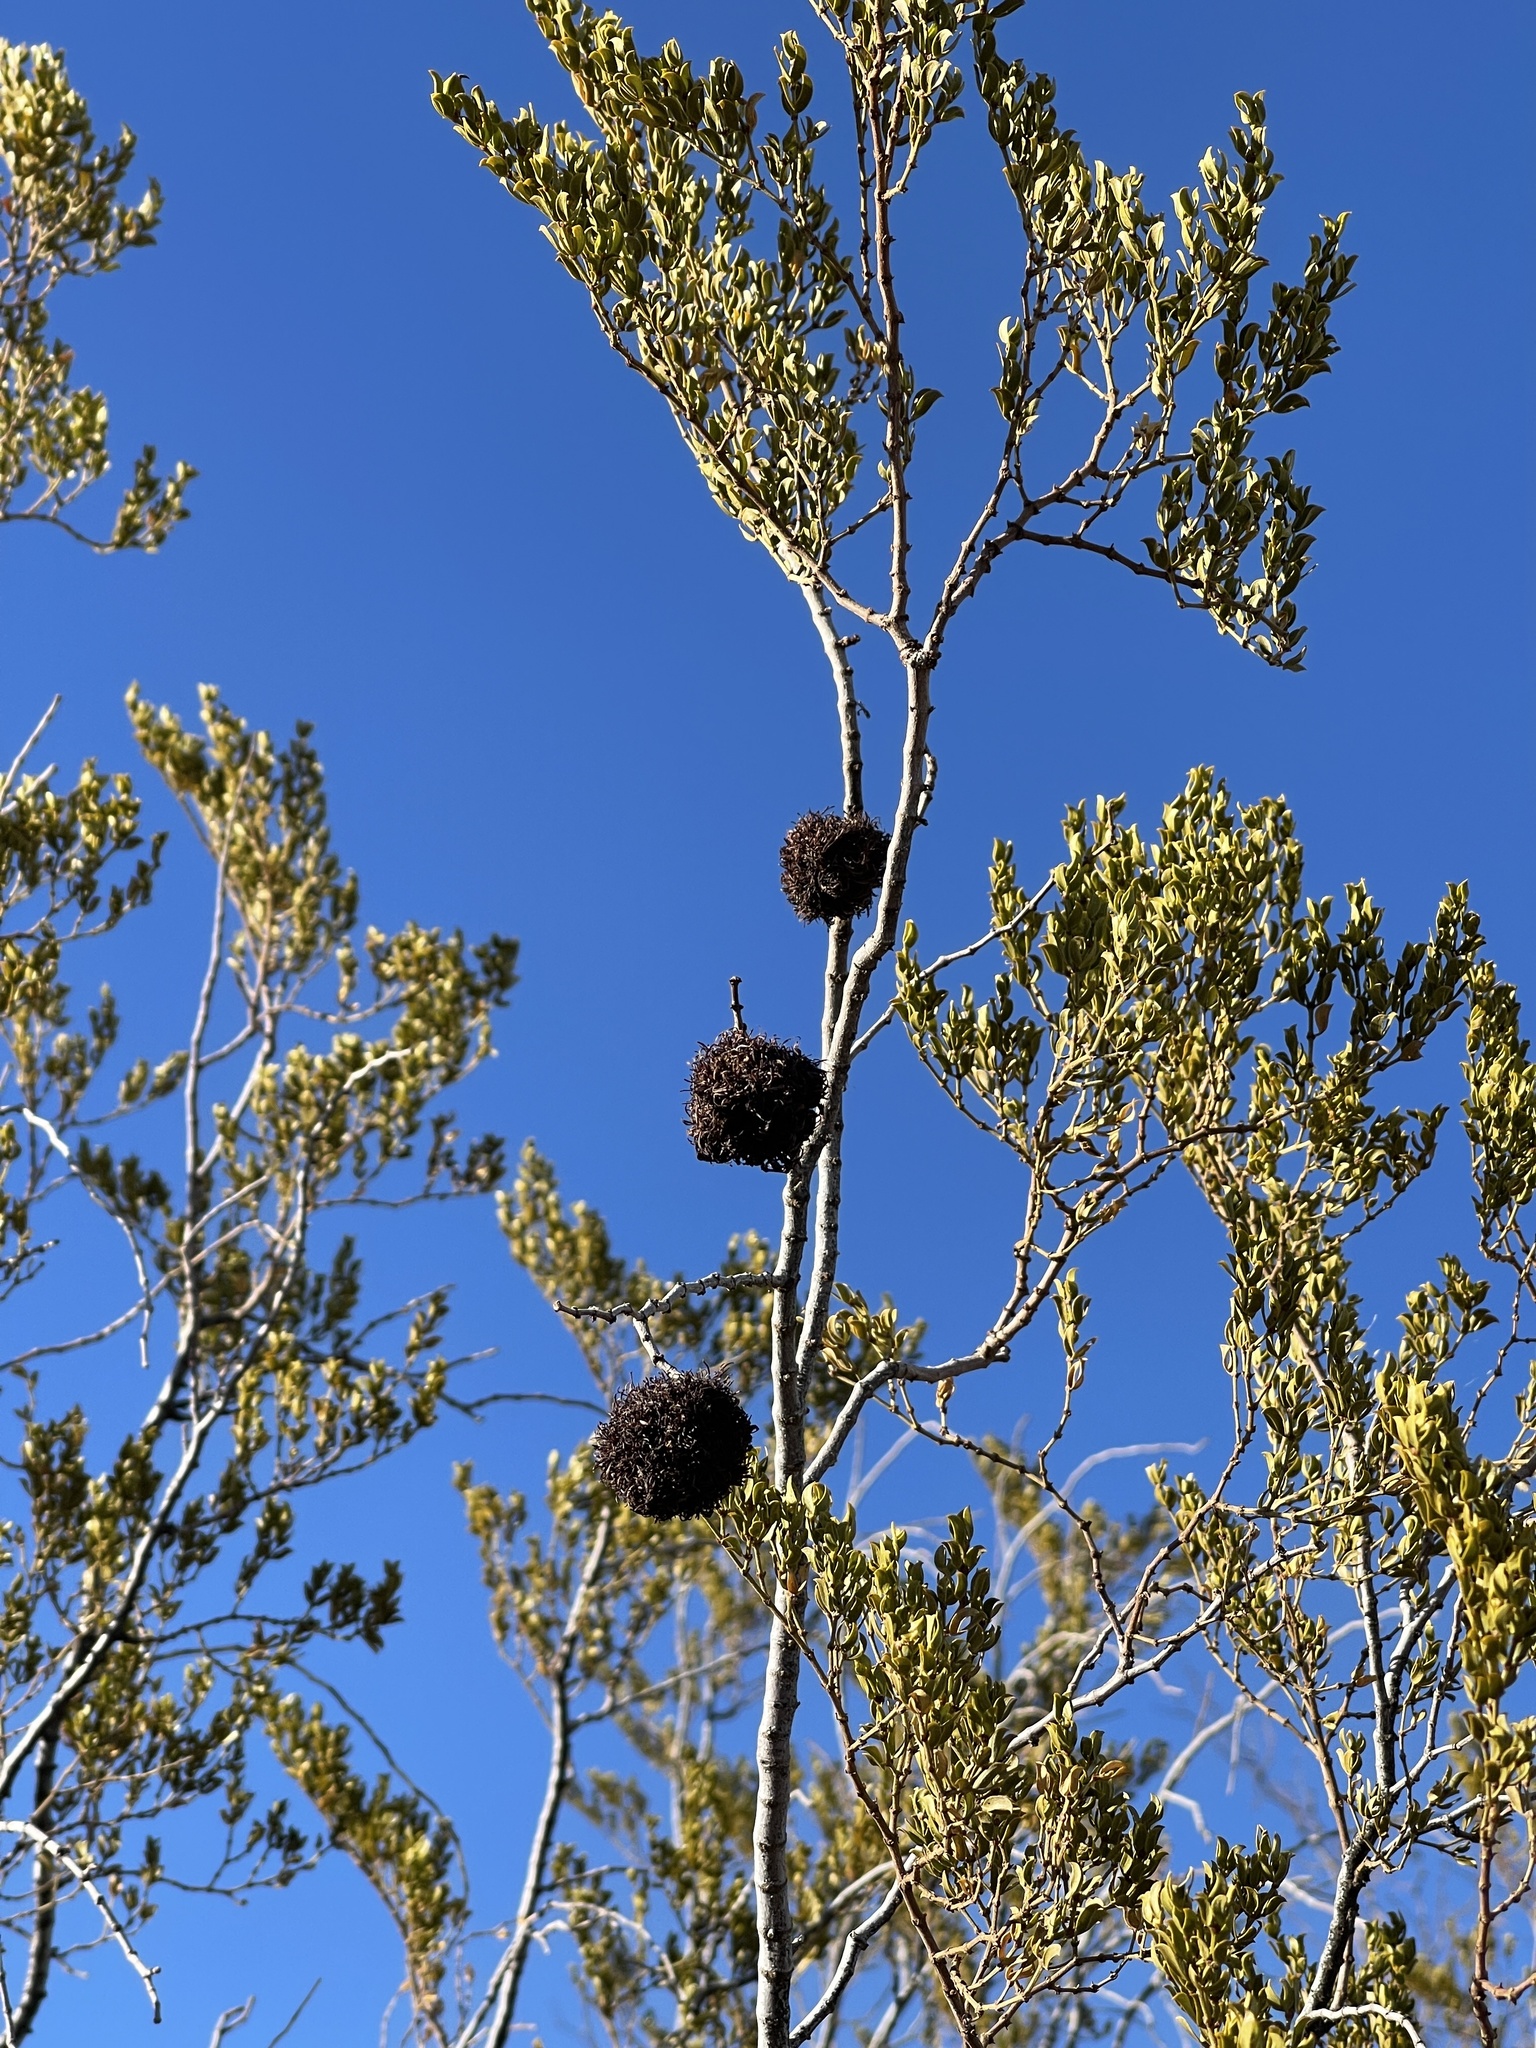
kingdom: Animalia
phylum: Arthropoda
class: Insecta
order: Diptera
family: Cecidomyiidae
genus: Asphondylia
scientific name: Asphondylia auripila
